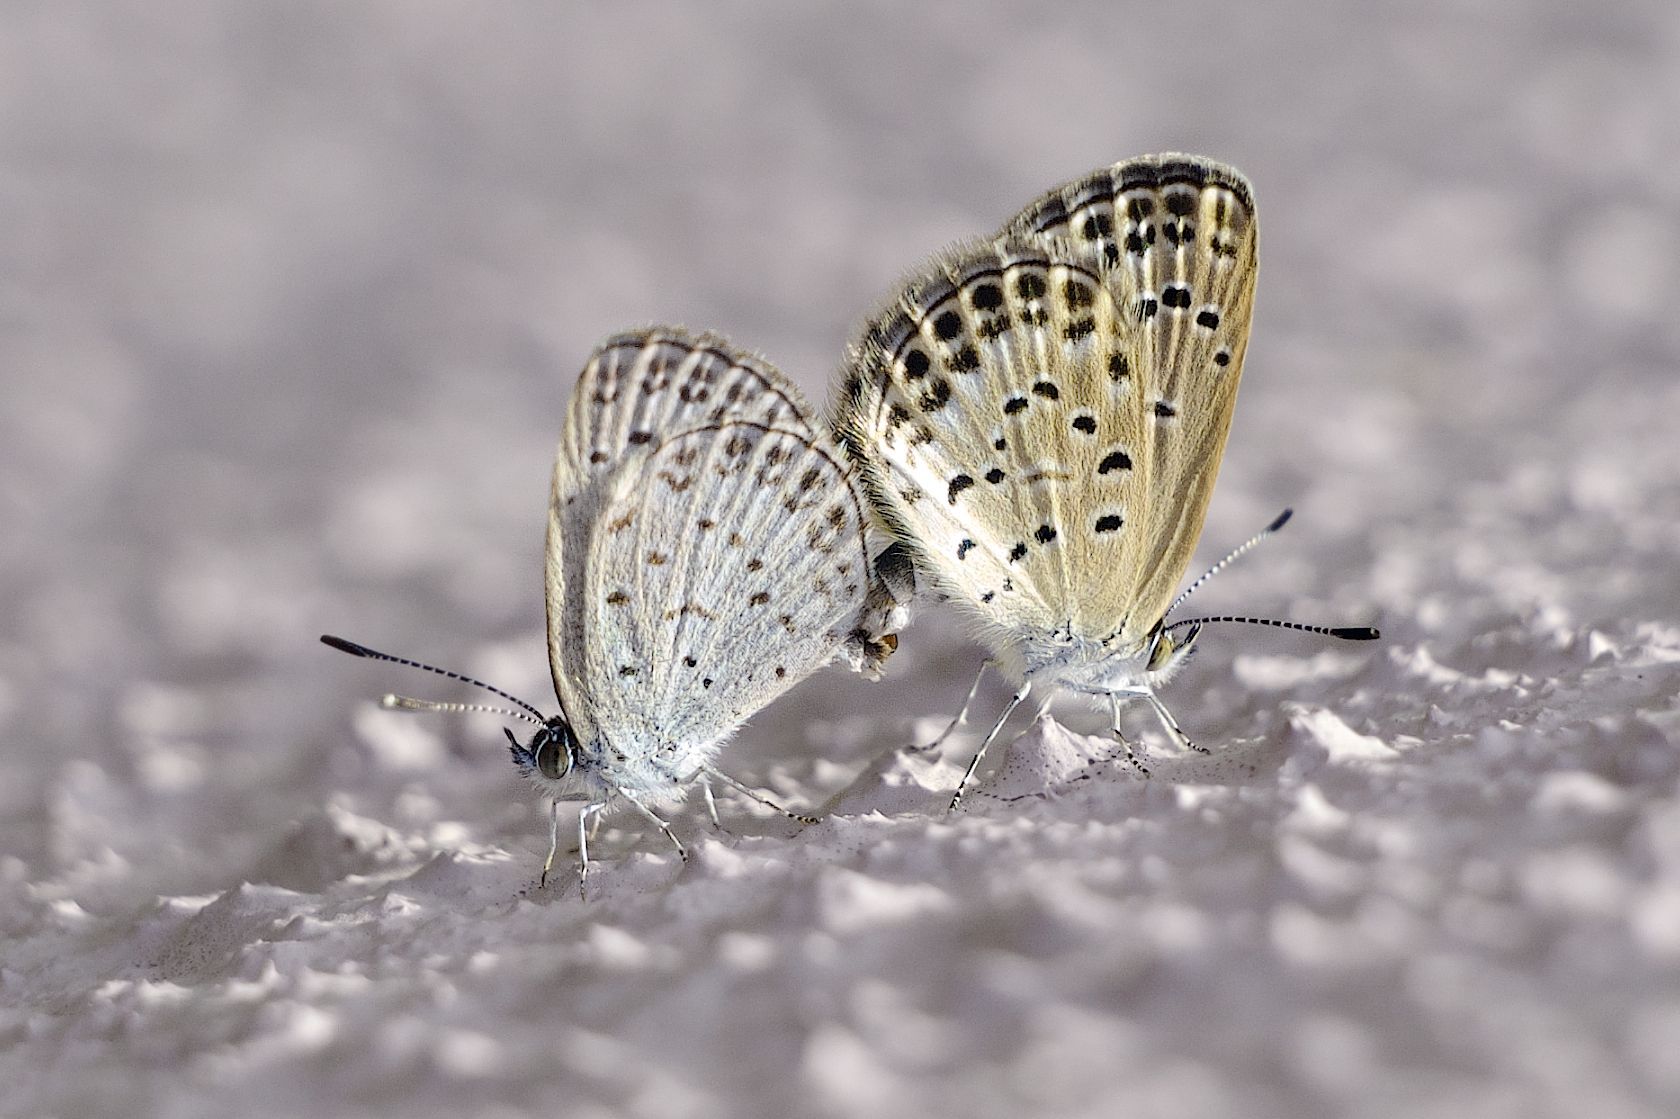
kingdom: Animalia
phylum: Arthropoda
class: Insecta
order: Lepidoptera
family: Lycaenidae
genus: Pseudozizeeria
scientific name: Pseudozizeeria maha
